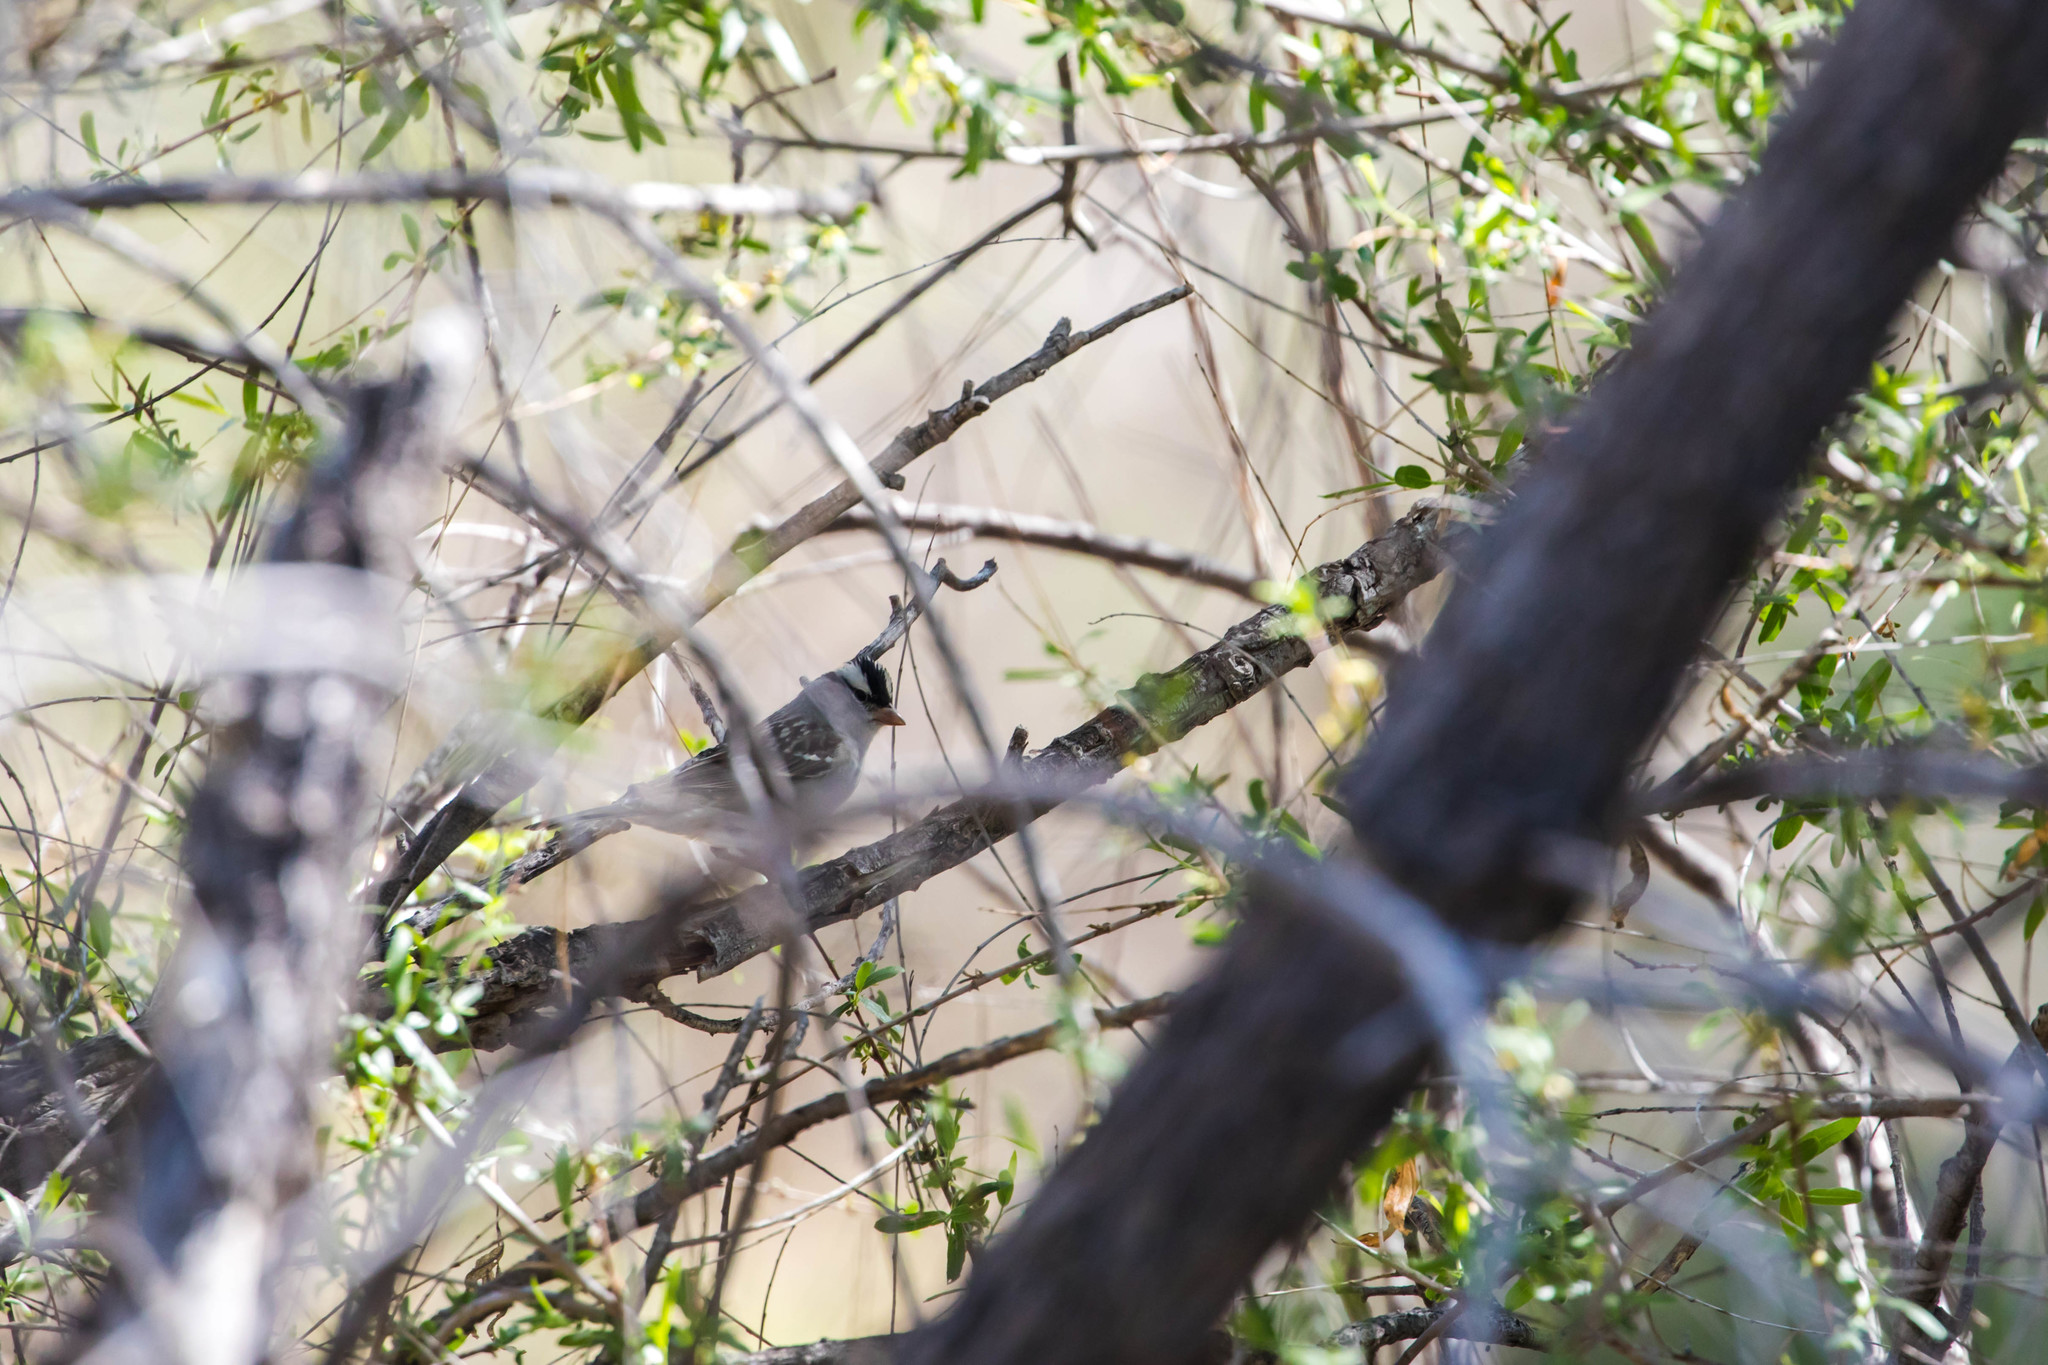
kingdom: Animalia
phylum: Chordata
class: Aves
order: Passeriformes
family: Passerellidae
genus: Zonotrichia
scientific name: Zonotrichia leucophrys
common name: White-crowned sparrow
